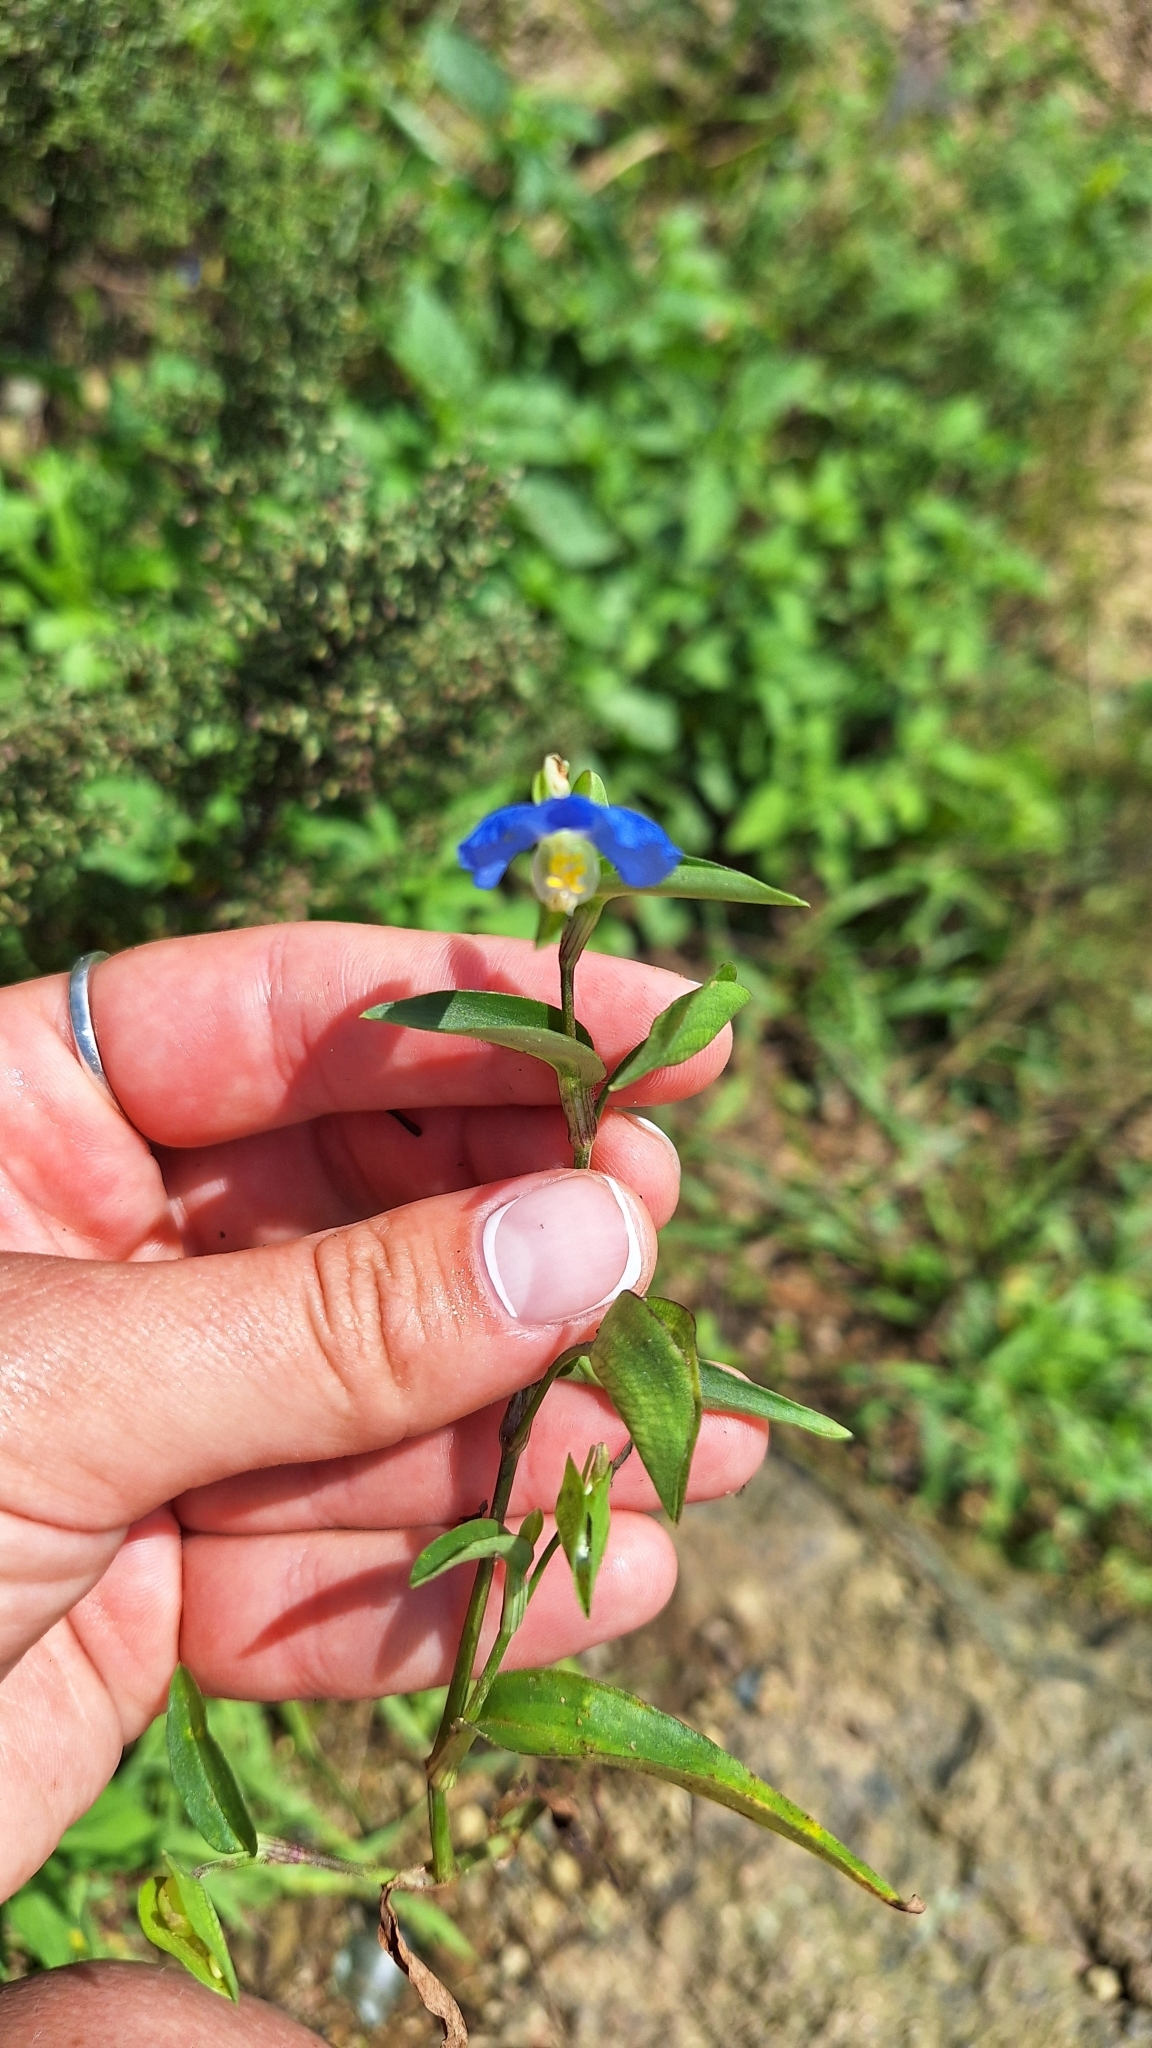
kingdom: Plantae
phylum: Tracheophyta
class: Liliopsida
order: Commelinales
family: Commelinaceae
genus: Commelina
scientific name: Commelina communis
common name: Asiatic dayflower
